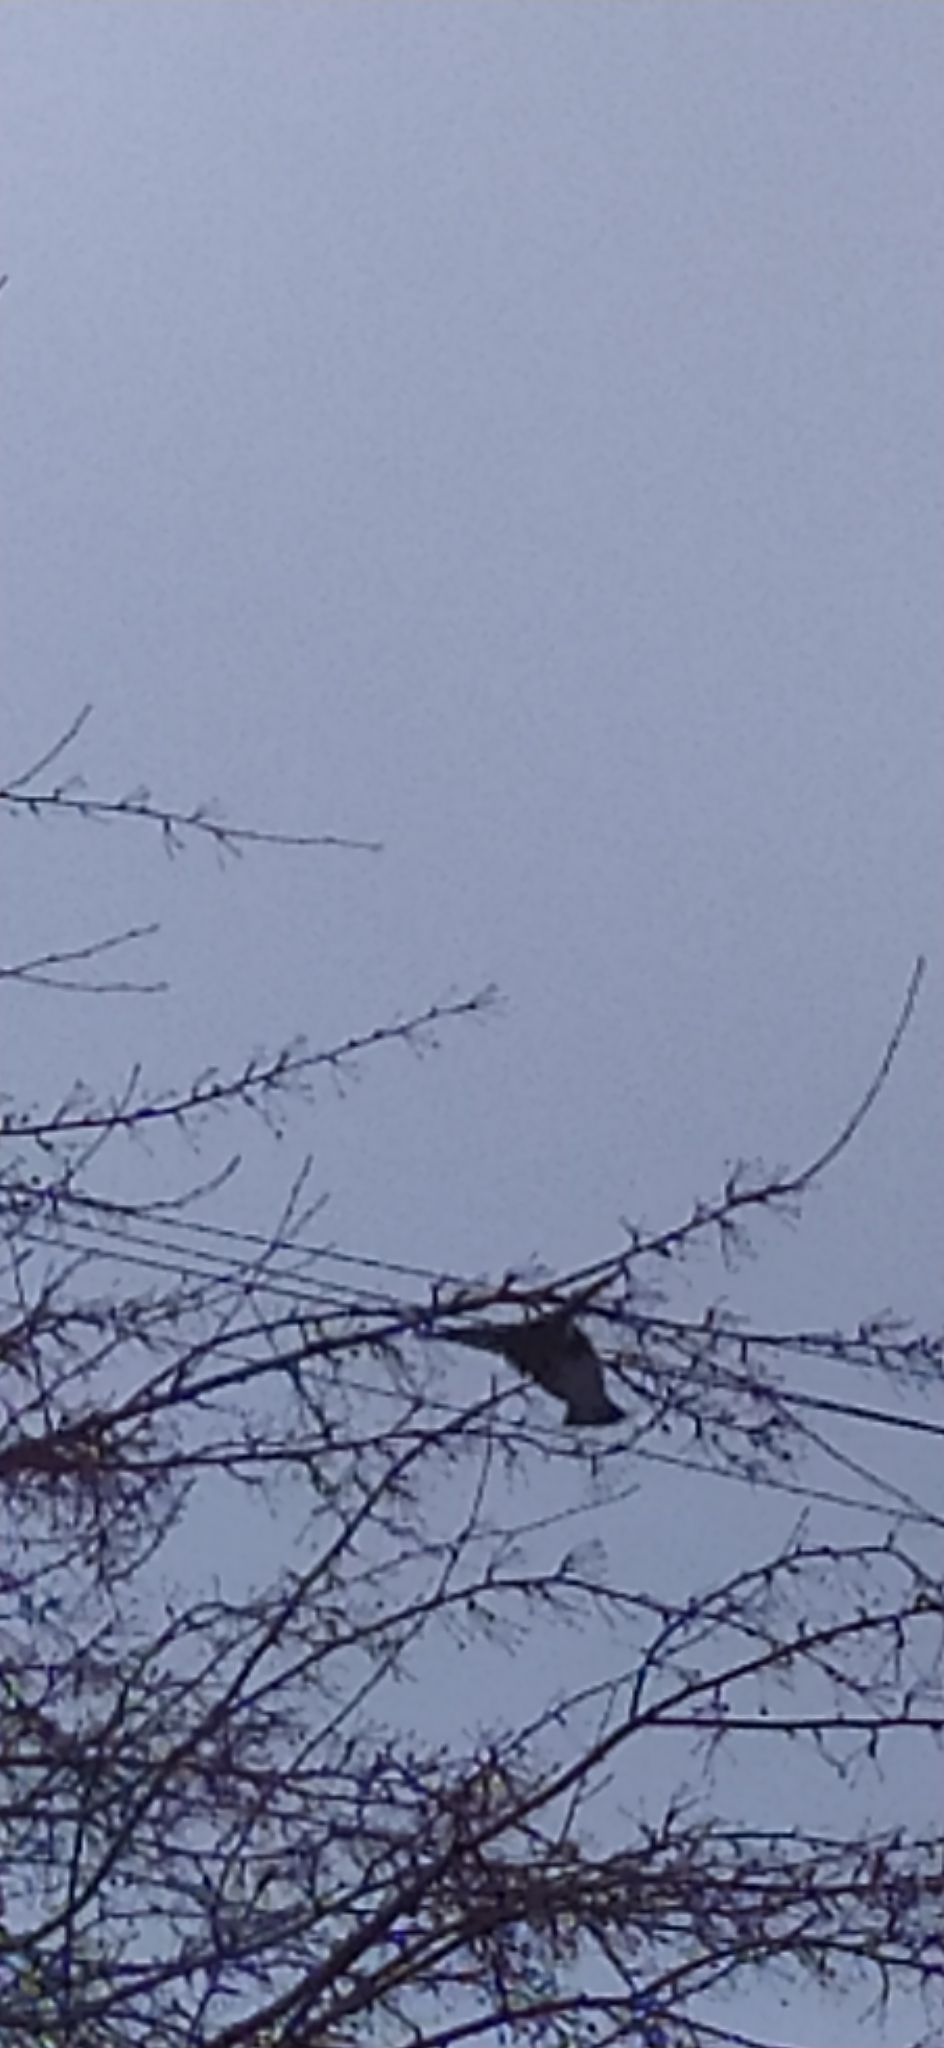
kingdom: Animalia
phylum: Chordata
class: Aves
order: Passeriformes
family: Bombycillidae
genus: Bombycilla
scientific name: Bombycilla garrulus
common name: Bohemian waxwing
